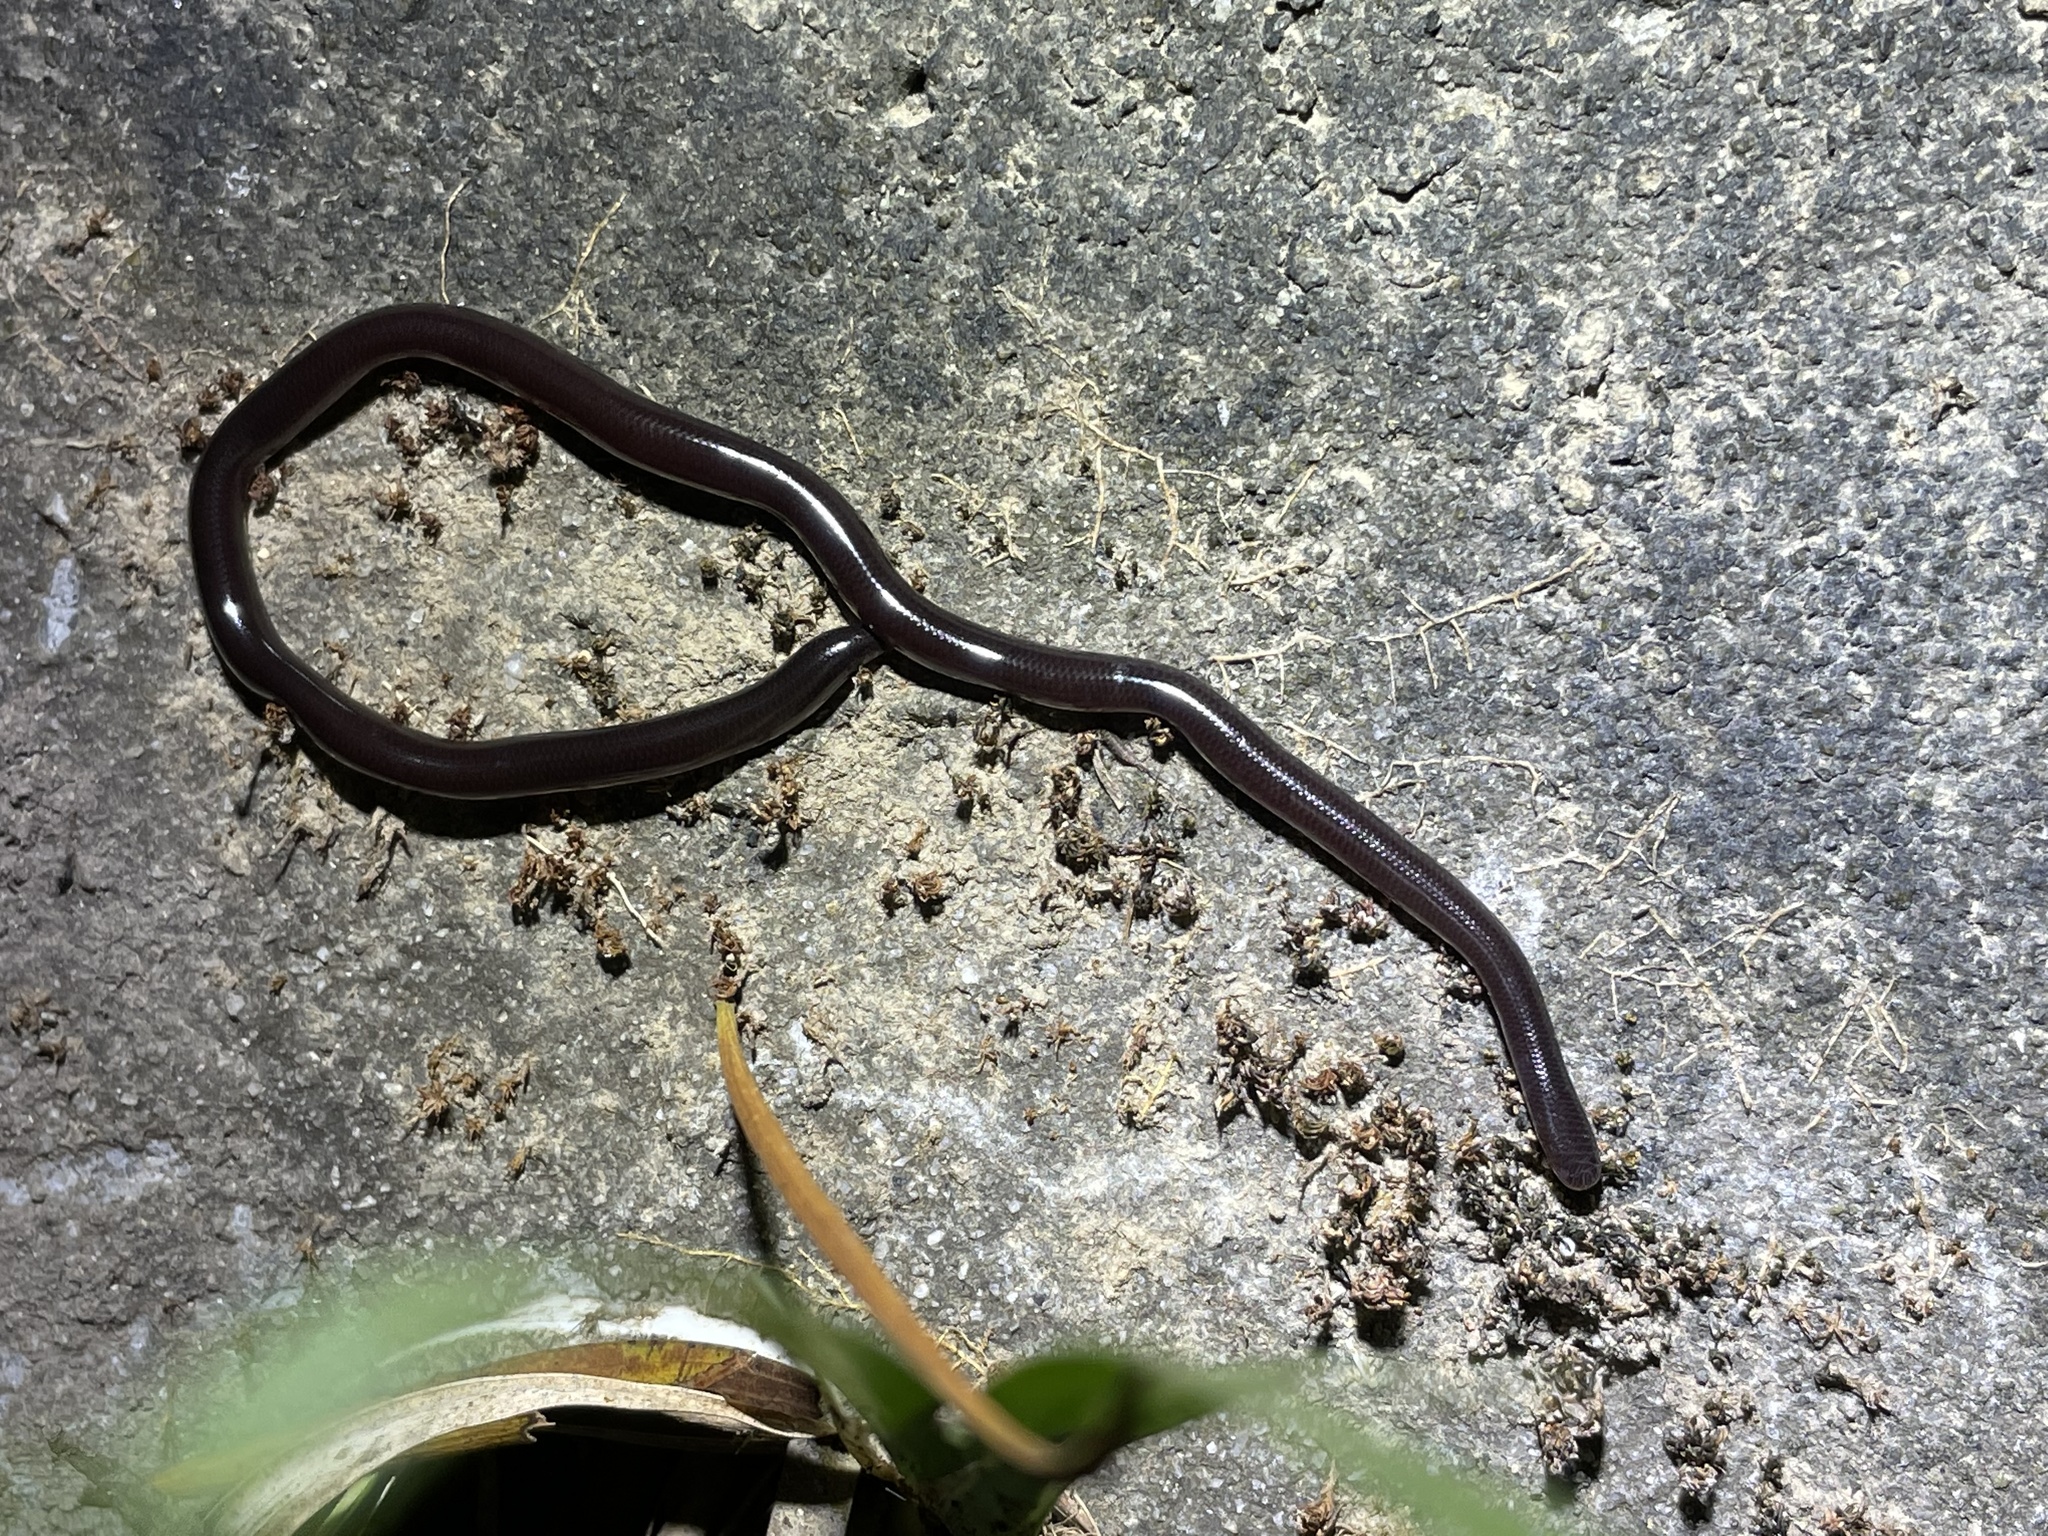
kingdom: Animalia
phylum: Chordata
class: Squamata
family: Typhlopidae
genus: Indotyphlops
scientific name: Indotyphlops braminus
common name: Brahminy blindsnake
